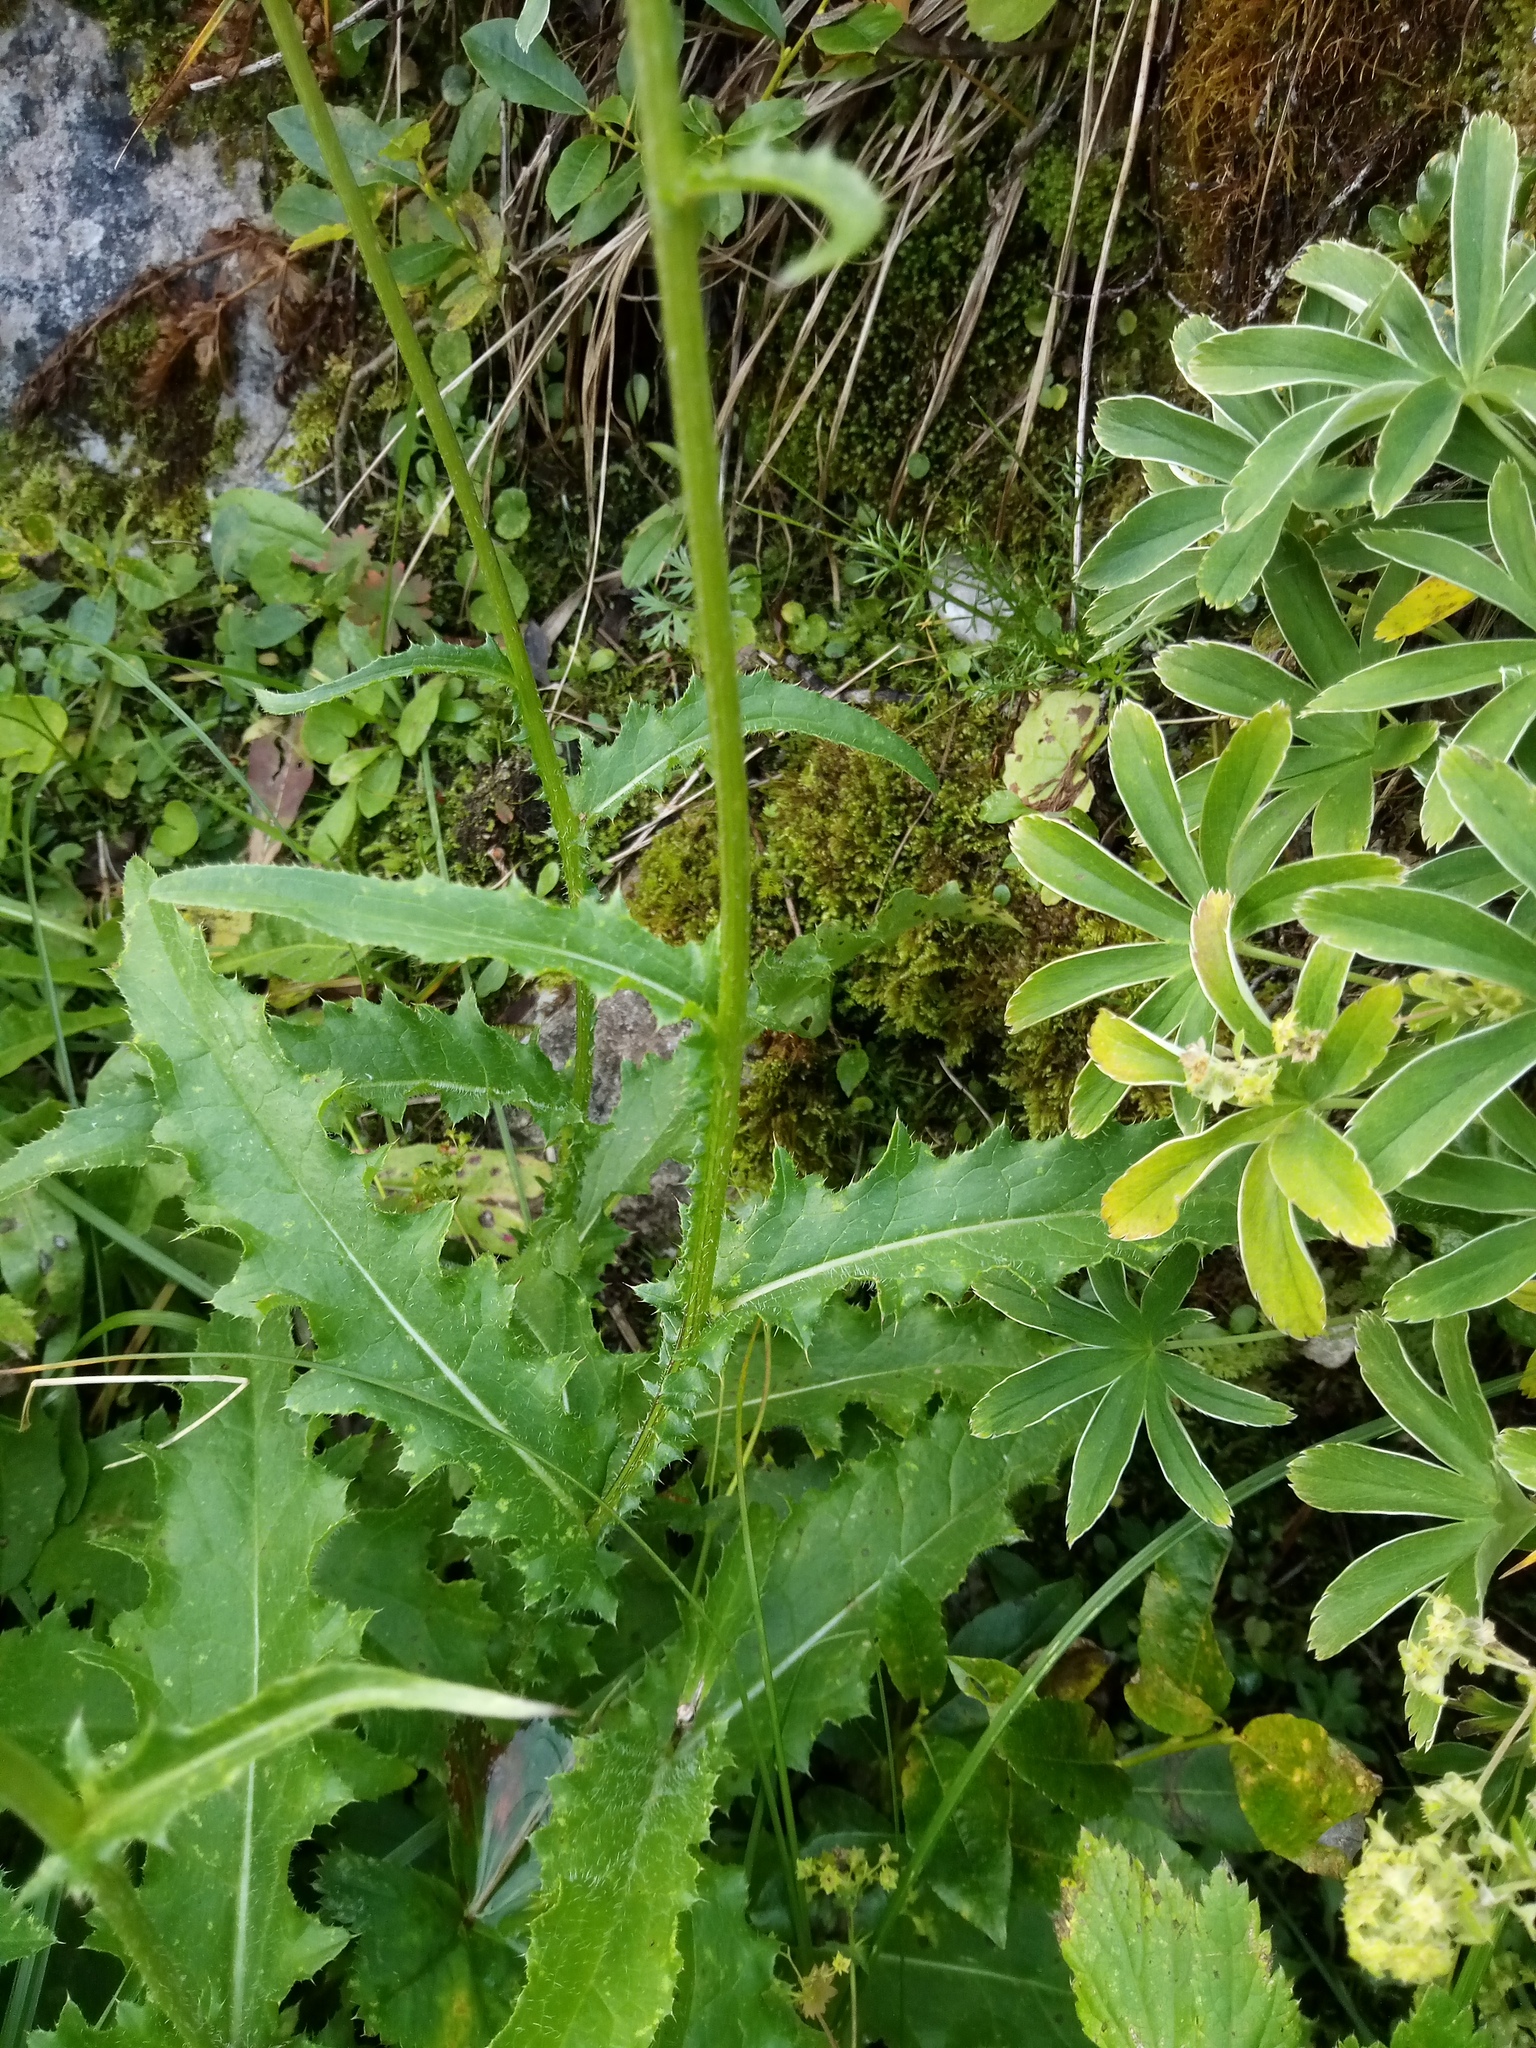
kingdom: Plantae
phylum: Tracheophyta
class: Magnoliopsida
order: Asterales
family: Asteraceae
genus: Carduus
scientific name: Carduus defloratus
